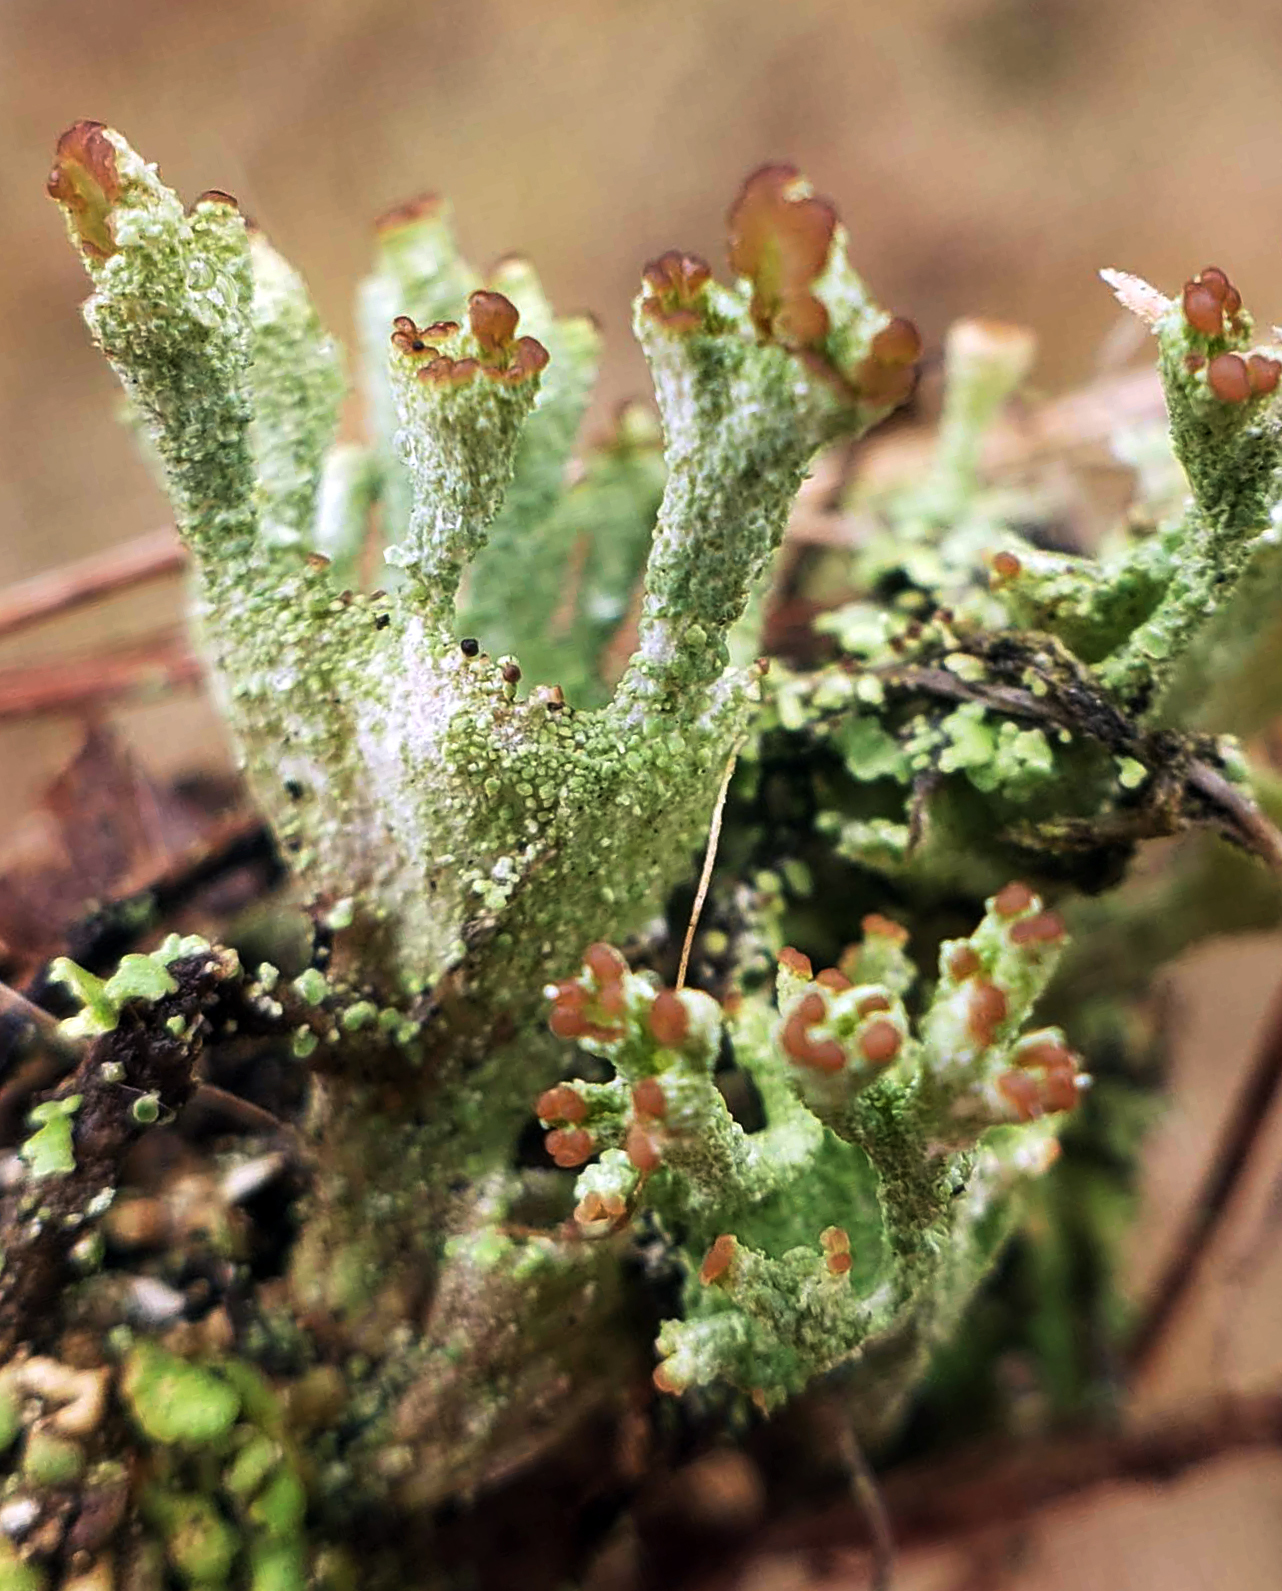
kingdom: Fungi
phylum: Ascomycota
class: Lecanoromycetes
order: Lecanorales
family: Cladoniaceae
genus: Cladonia
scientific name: Cladonia pyxidata
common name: Pebbled pixie cup
